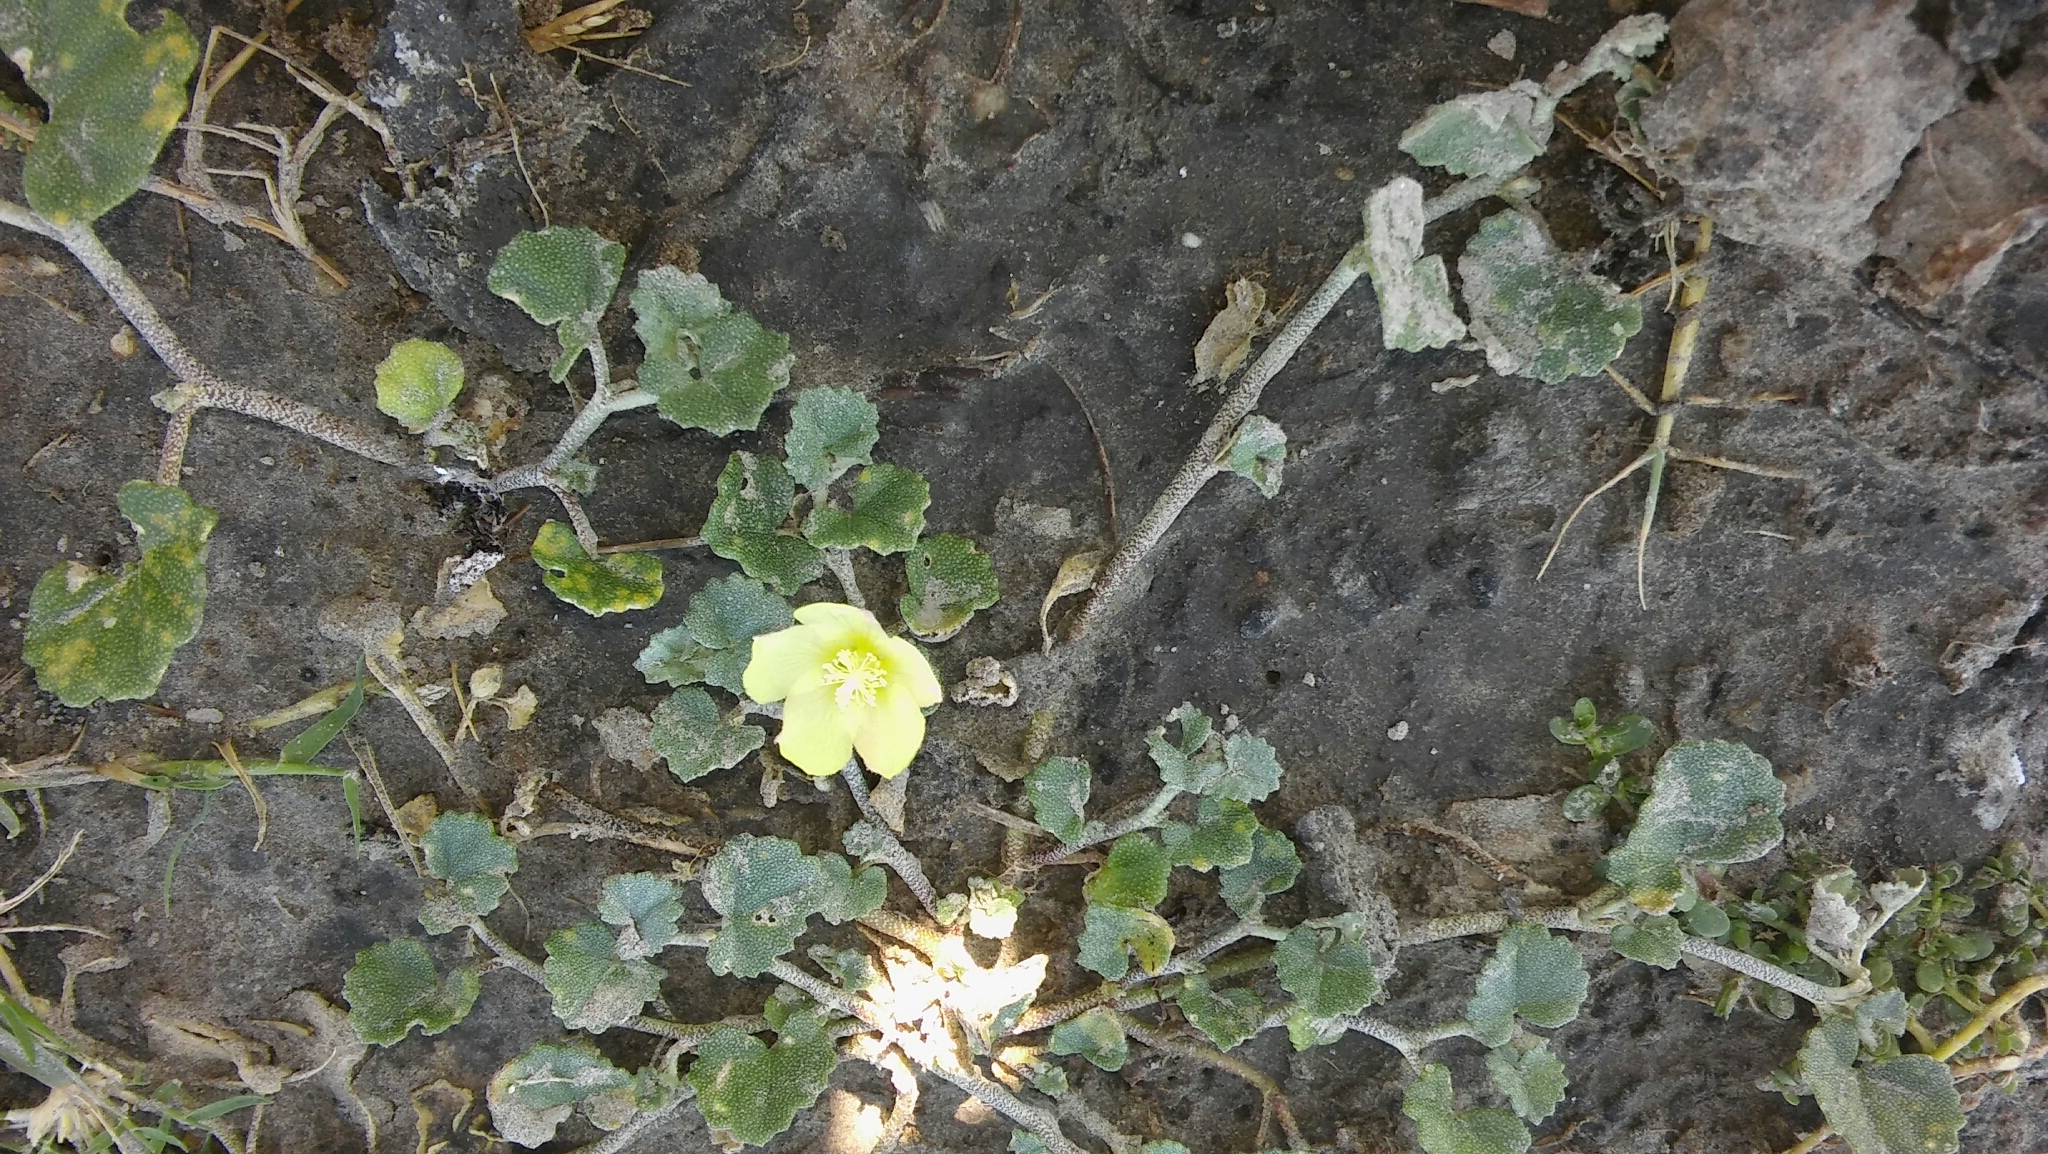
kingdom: Plantae
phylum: Tracheophyta
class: Magnoliopsida
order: Malvales
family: Malvaceae
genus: Malvella
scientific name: Malvella leprosa
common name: Alkali-mallow
